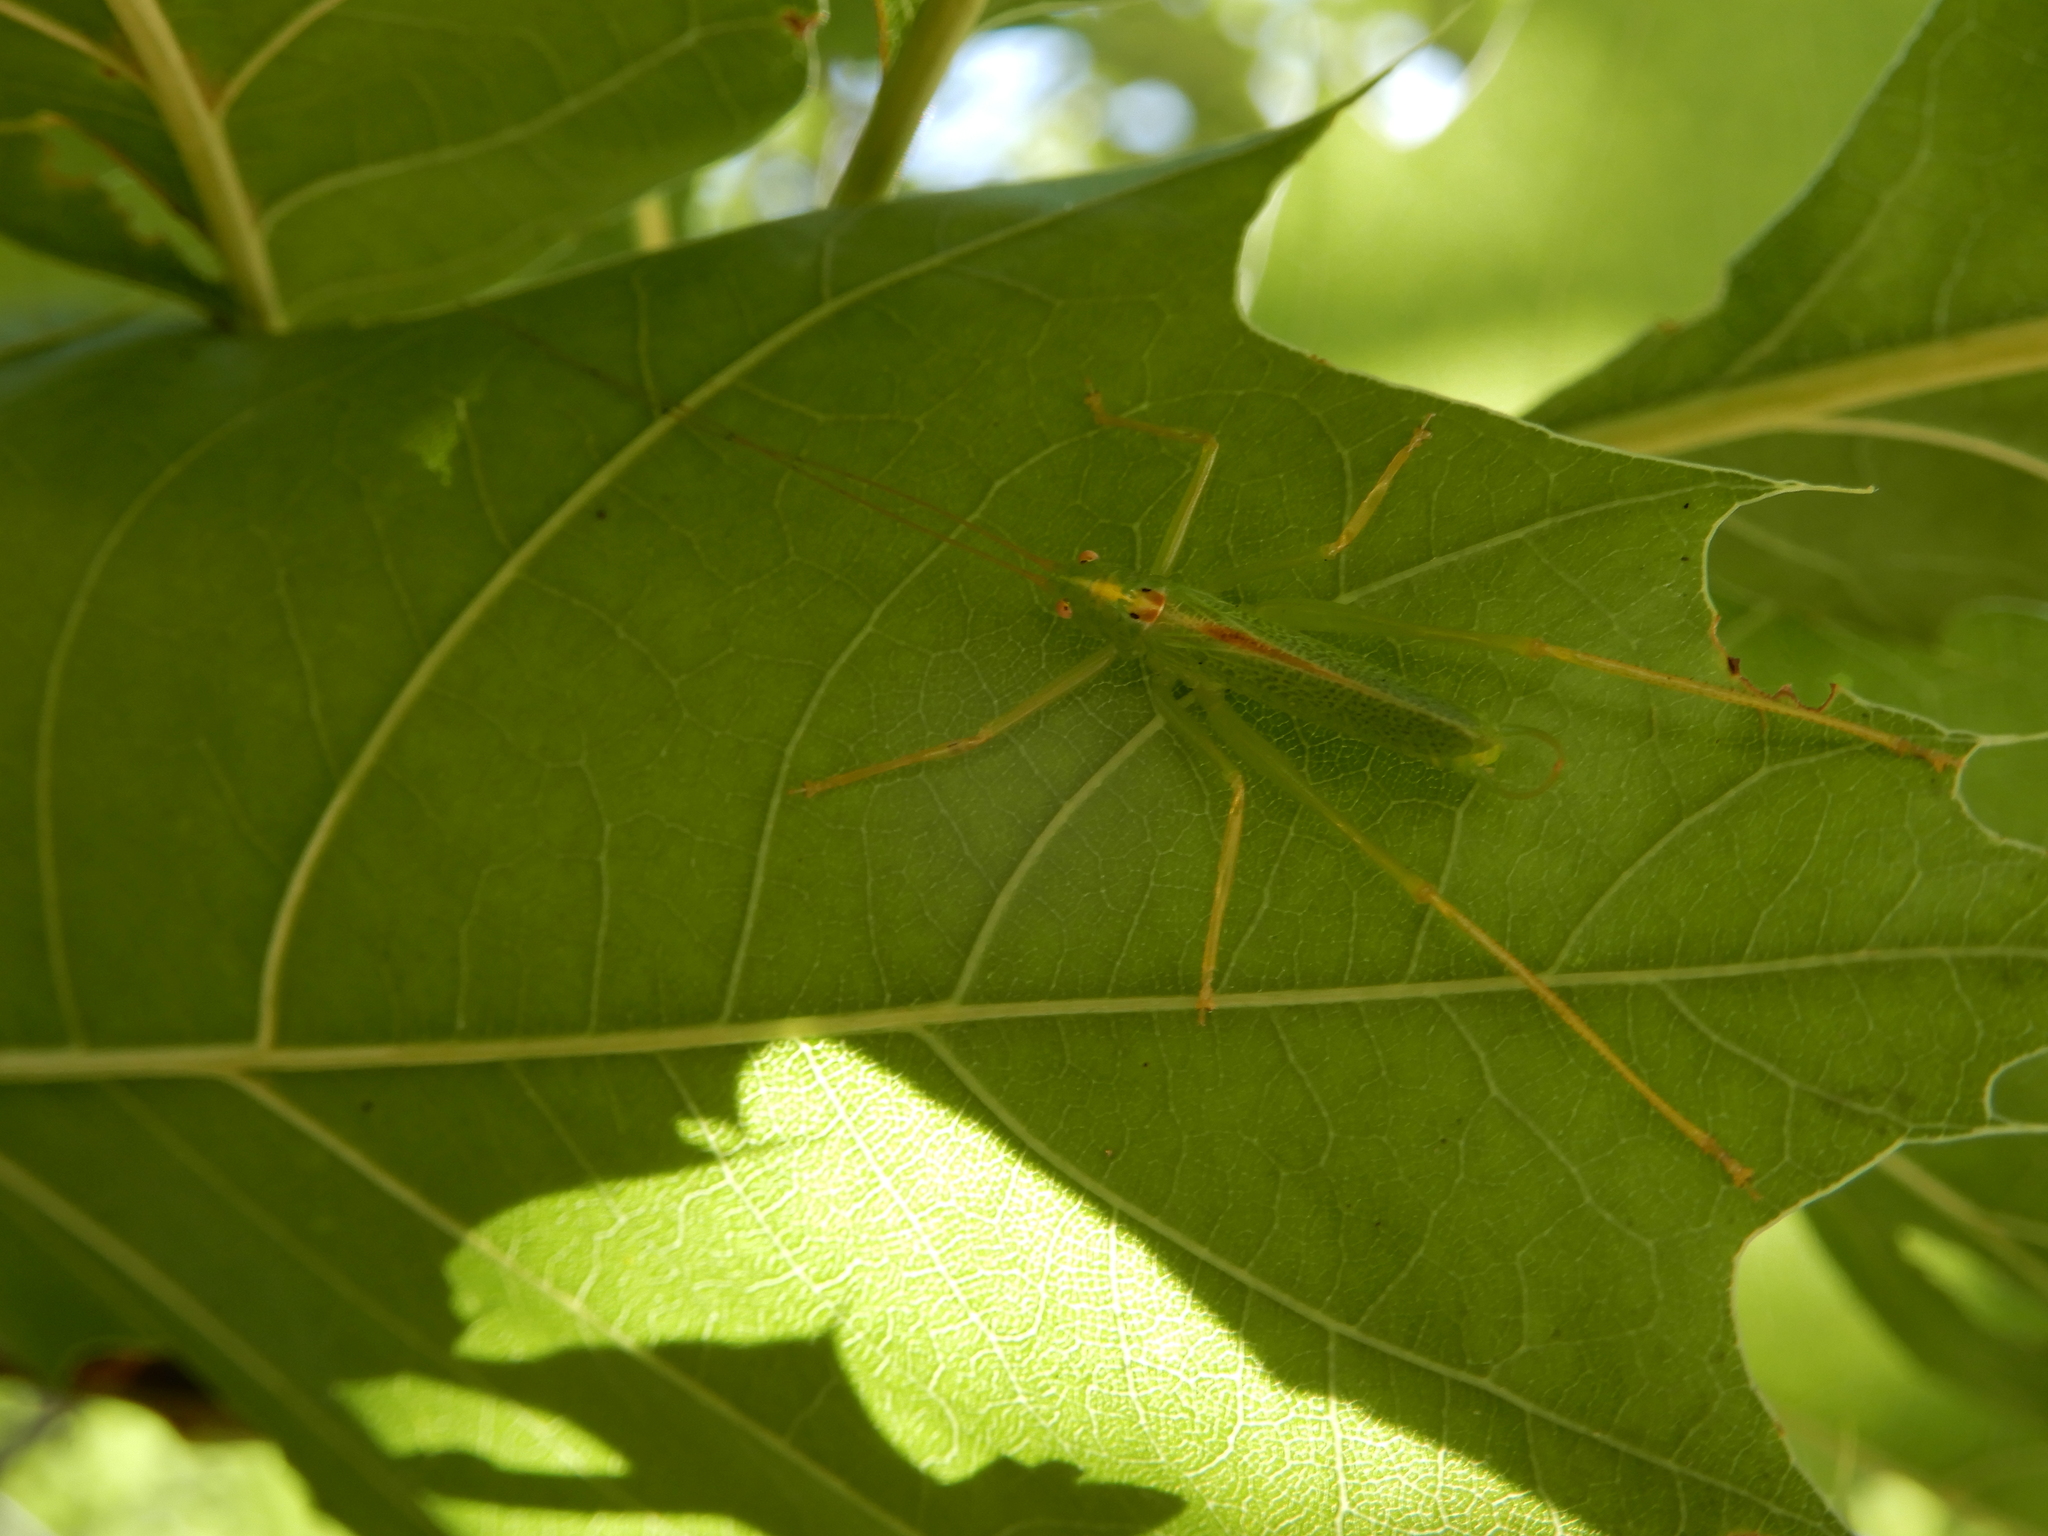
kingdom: Animalia
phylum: Arthropoda
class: Insecta
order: Orthoptera
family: Tettigoniidae
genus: Meconema
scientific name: Meconema thalassinum
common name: Oak bush-cricket
